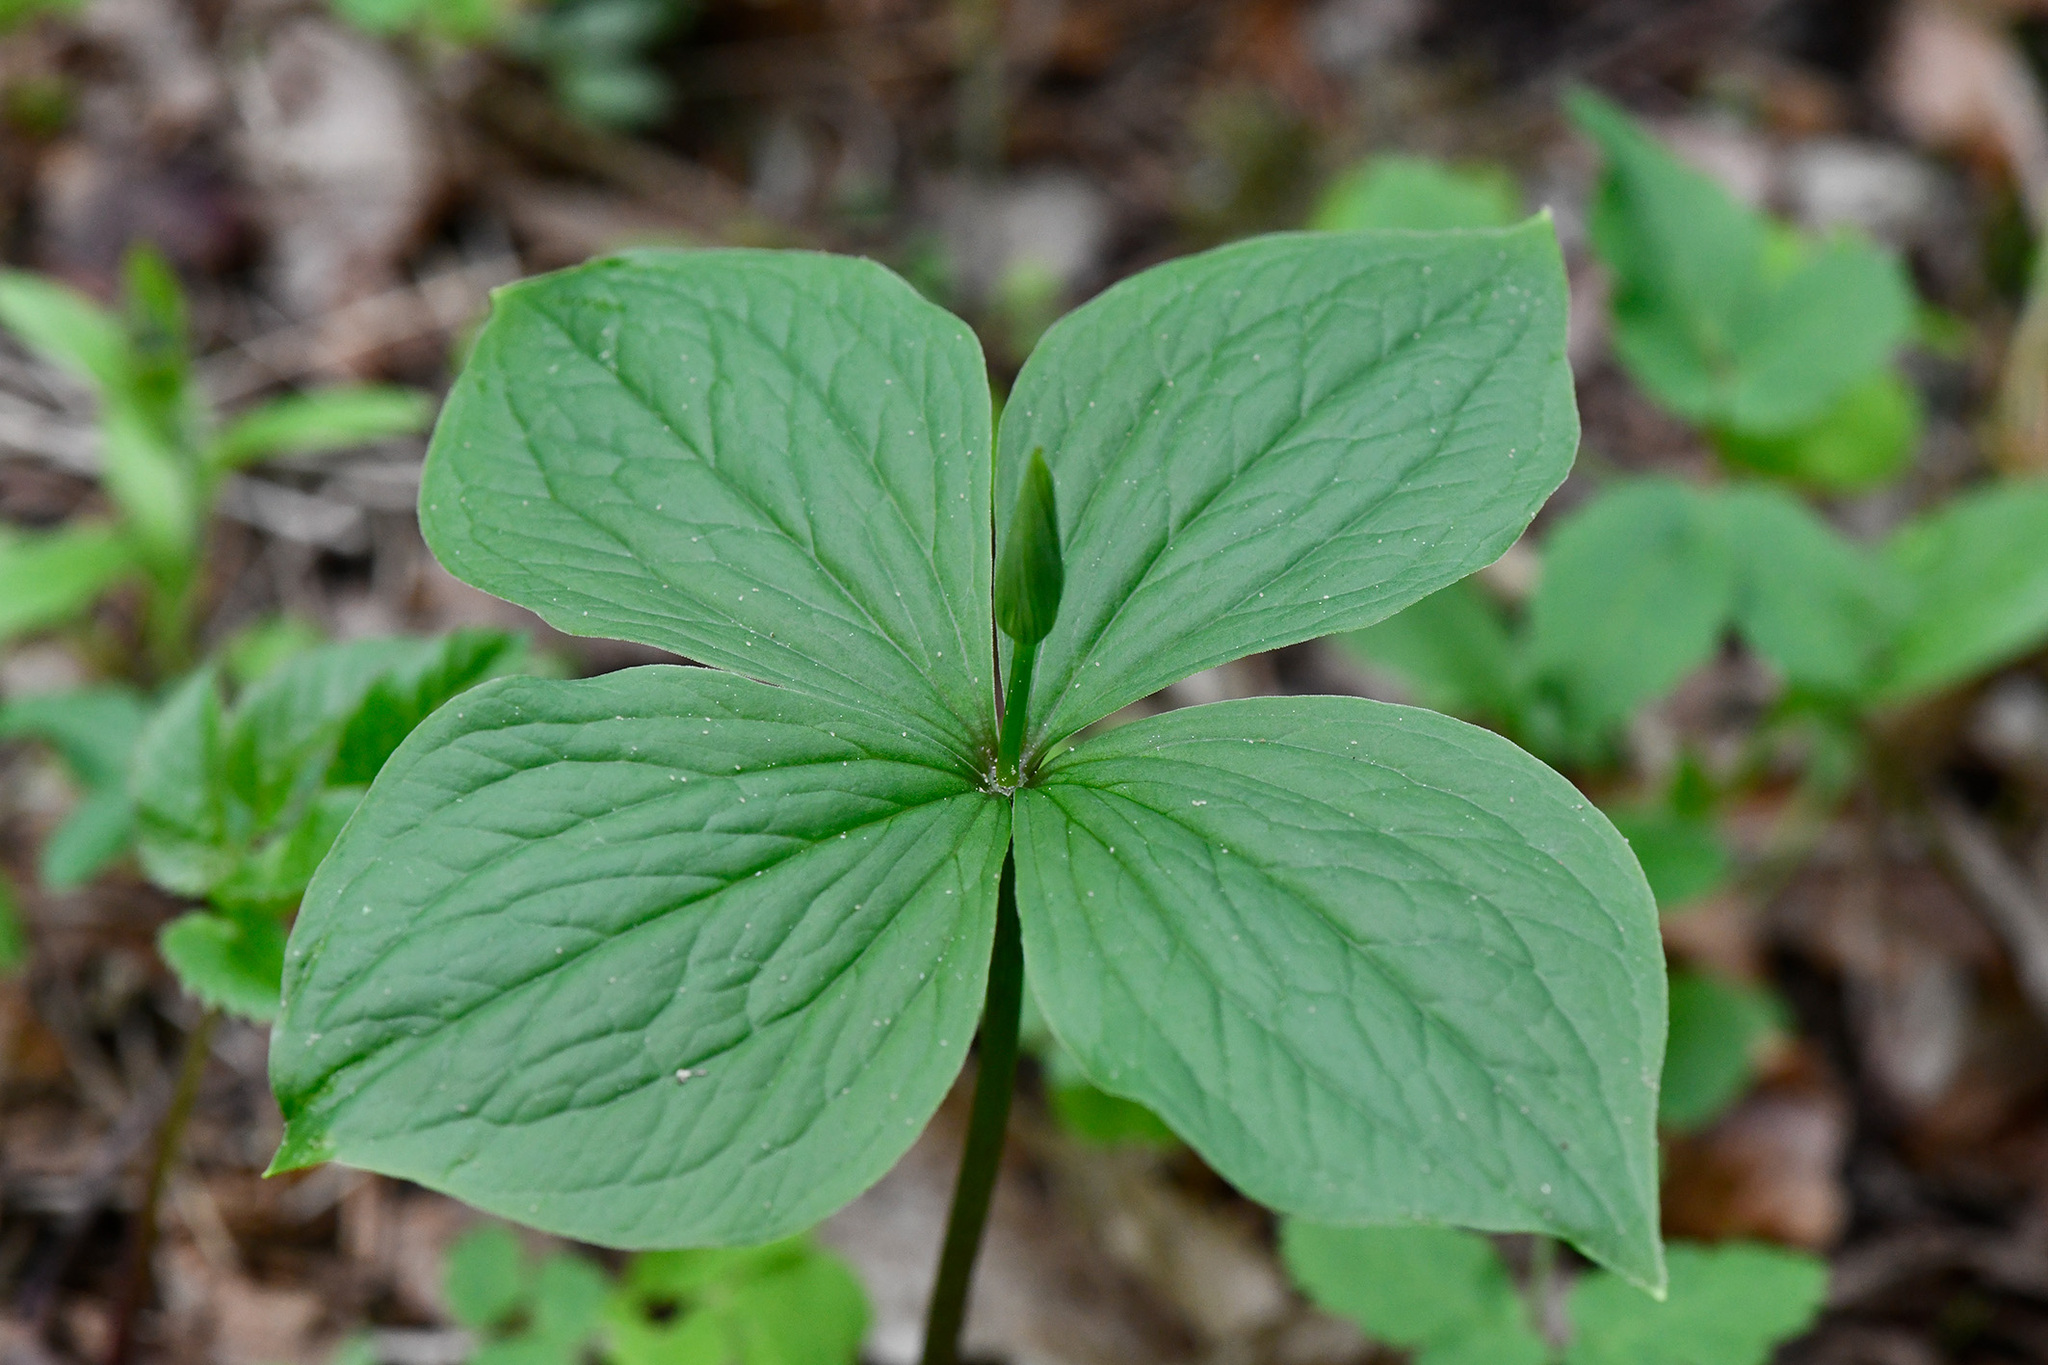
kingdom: Plantae
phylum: Tracheophyta
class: Liliopsida
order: Liliales
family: Melanthiaceae
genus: Paris
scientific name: Paris quadrifolia
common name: Herb-paris
